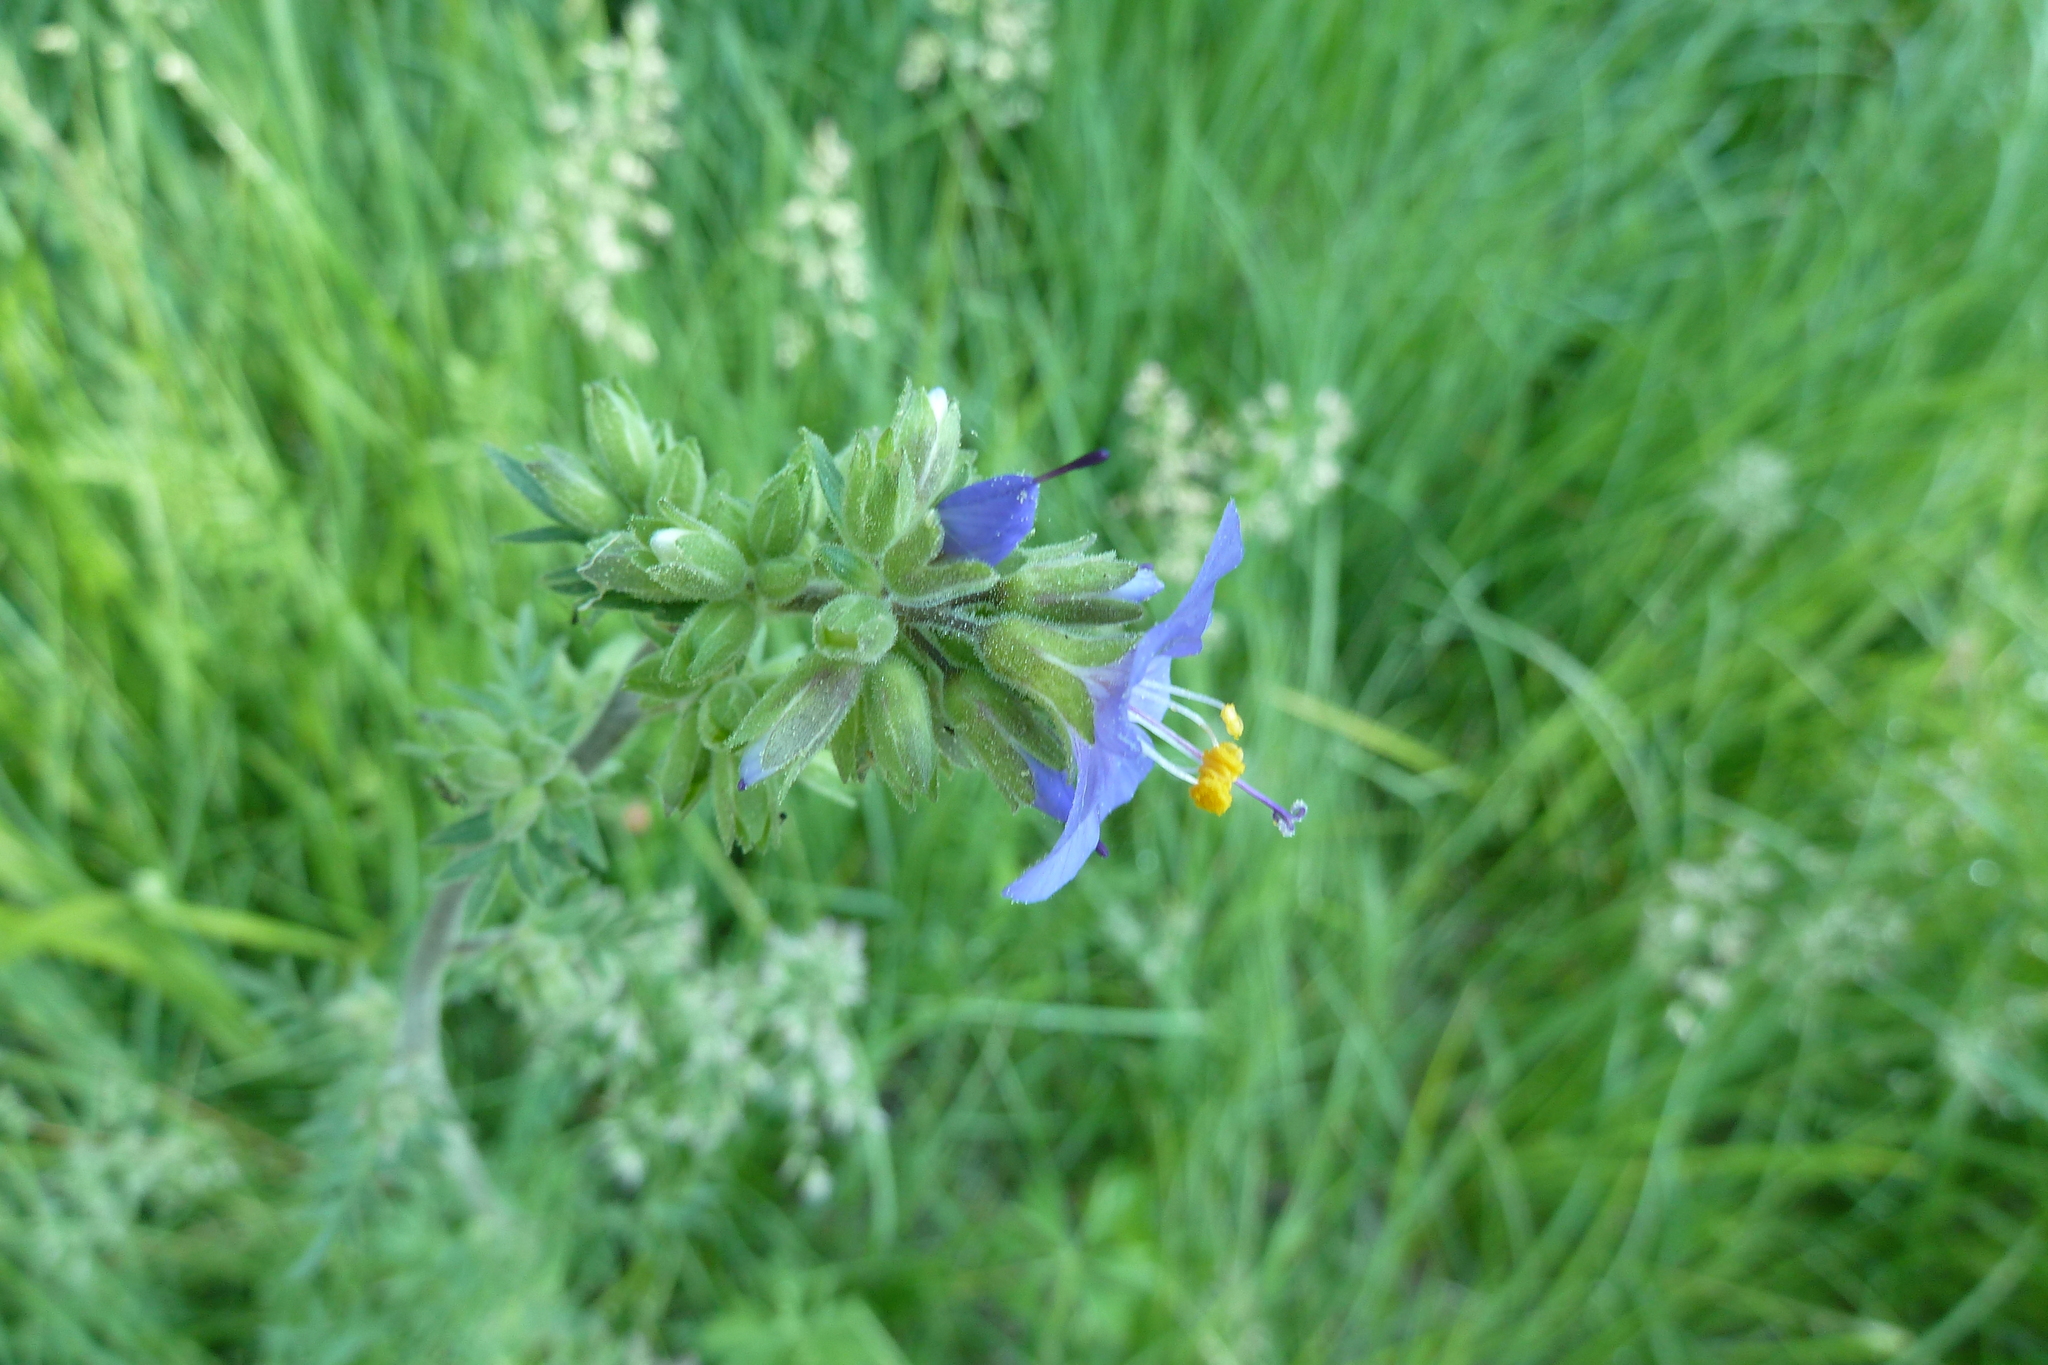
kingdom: Plantae
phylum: Tracheophyta
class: Magnoliopsida
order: Ericales
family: Polemoniaceae
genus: Polemonium
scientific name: Polemonium occidentale
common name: Western jacob's-ladder
